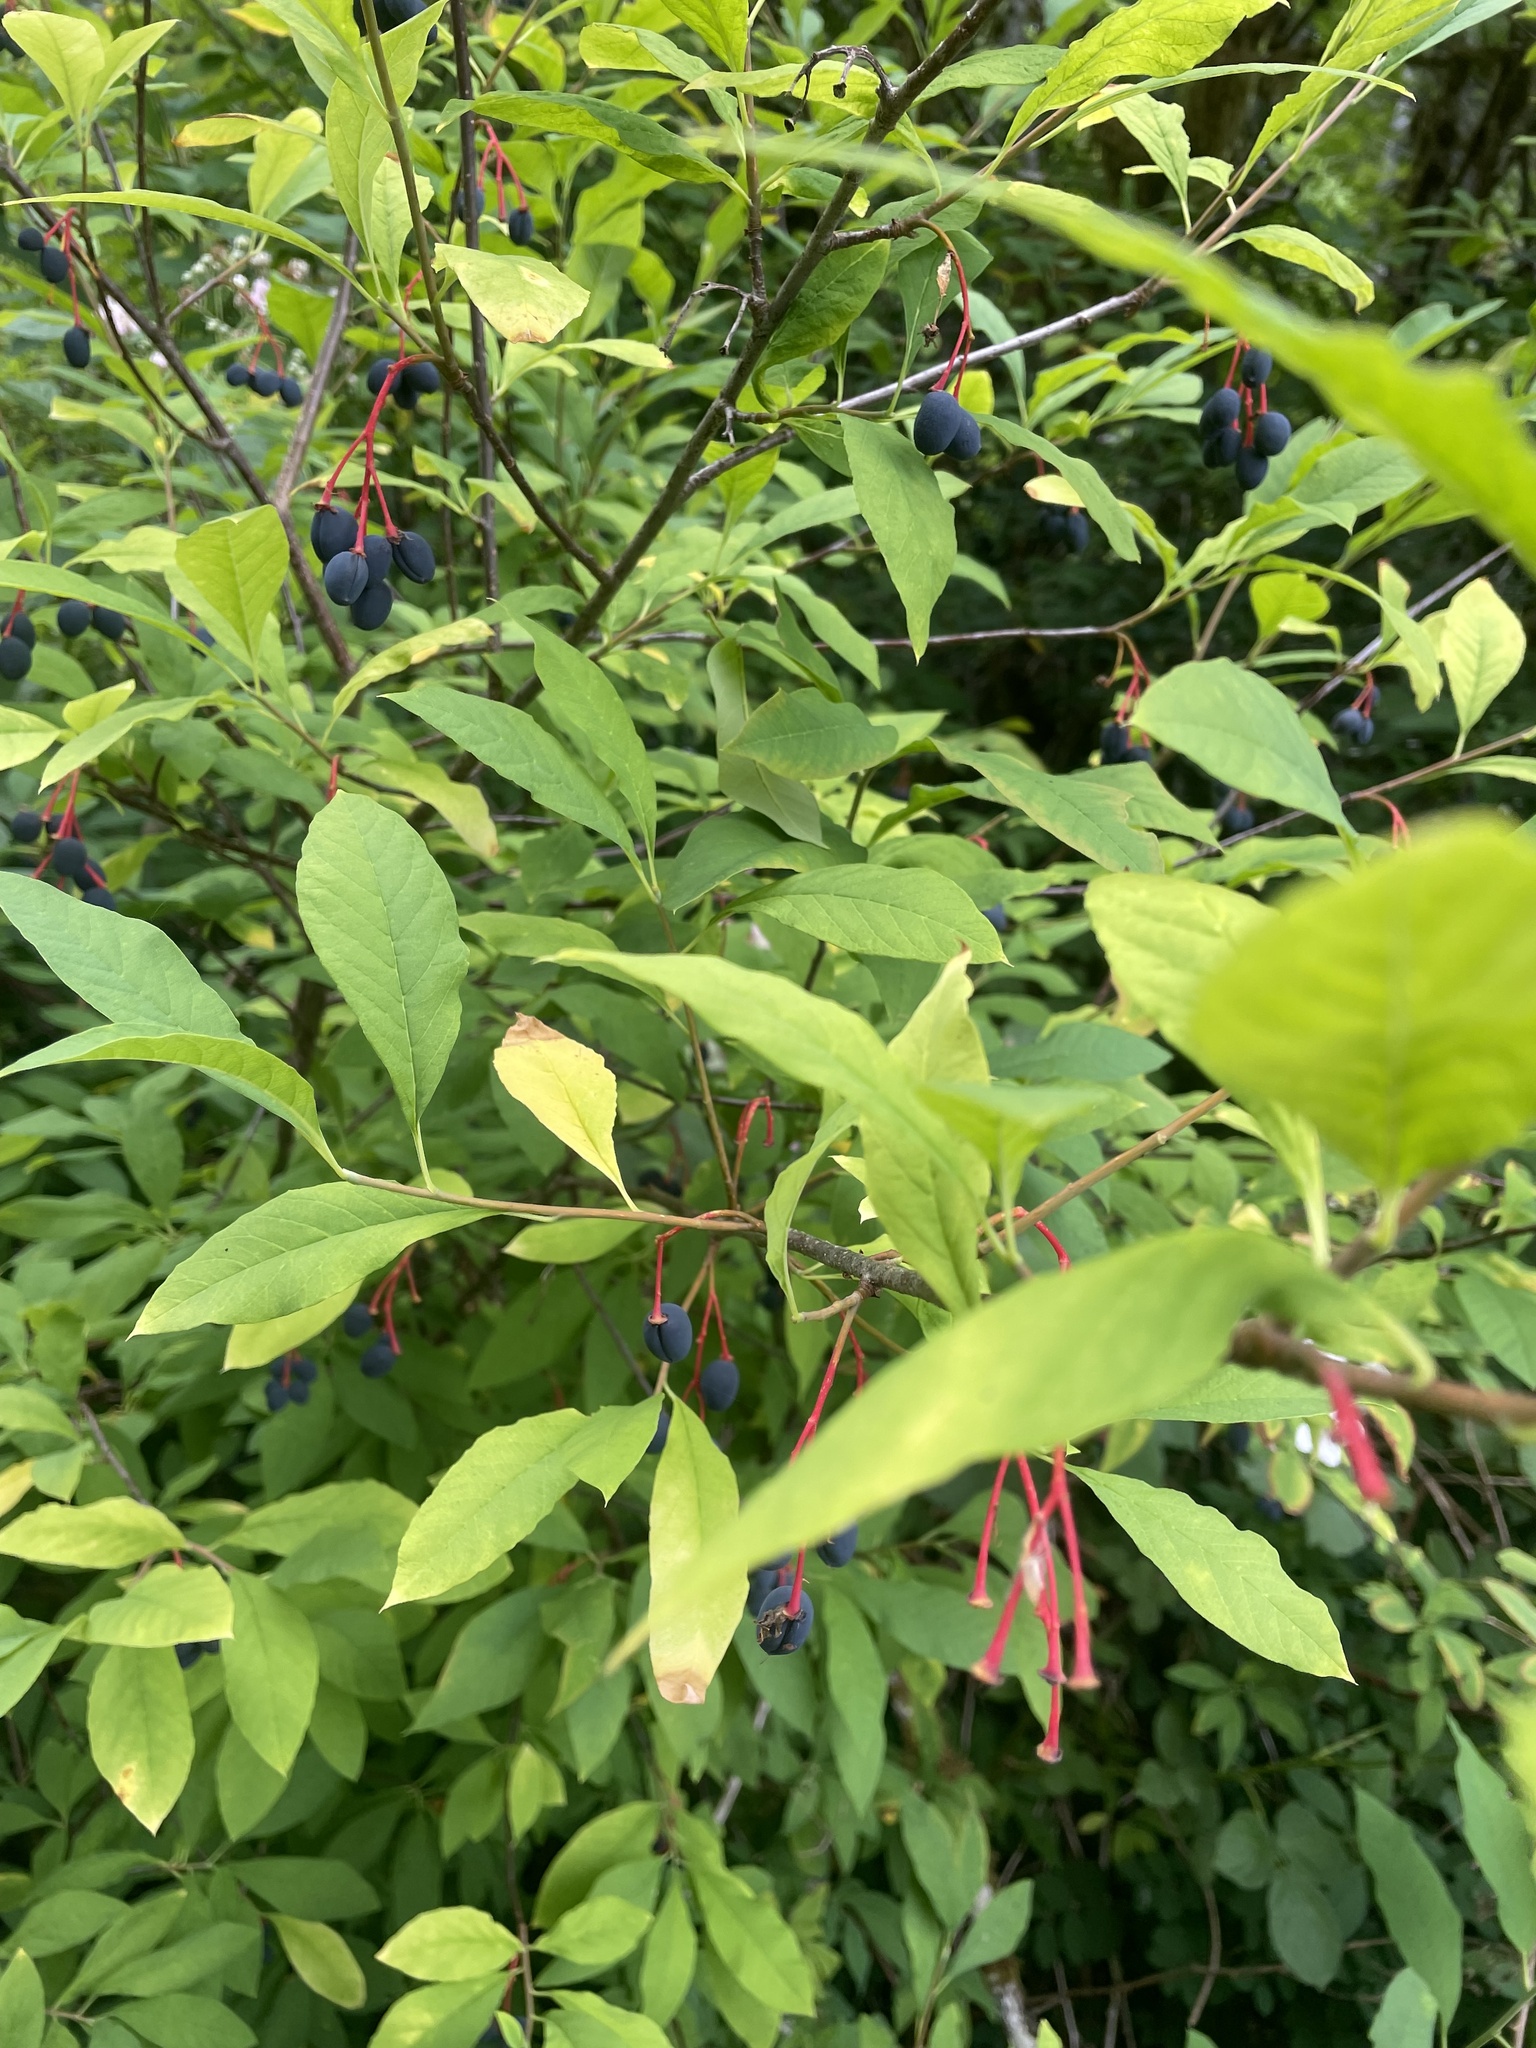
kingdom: Plantae
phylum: Tracheophyta
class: Magnoliopsida
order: Rosales
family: Rosaceae
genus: Oemleria
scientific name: Oemleria cerasiformis
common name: Osoberry
